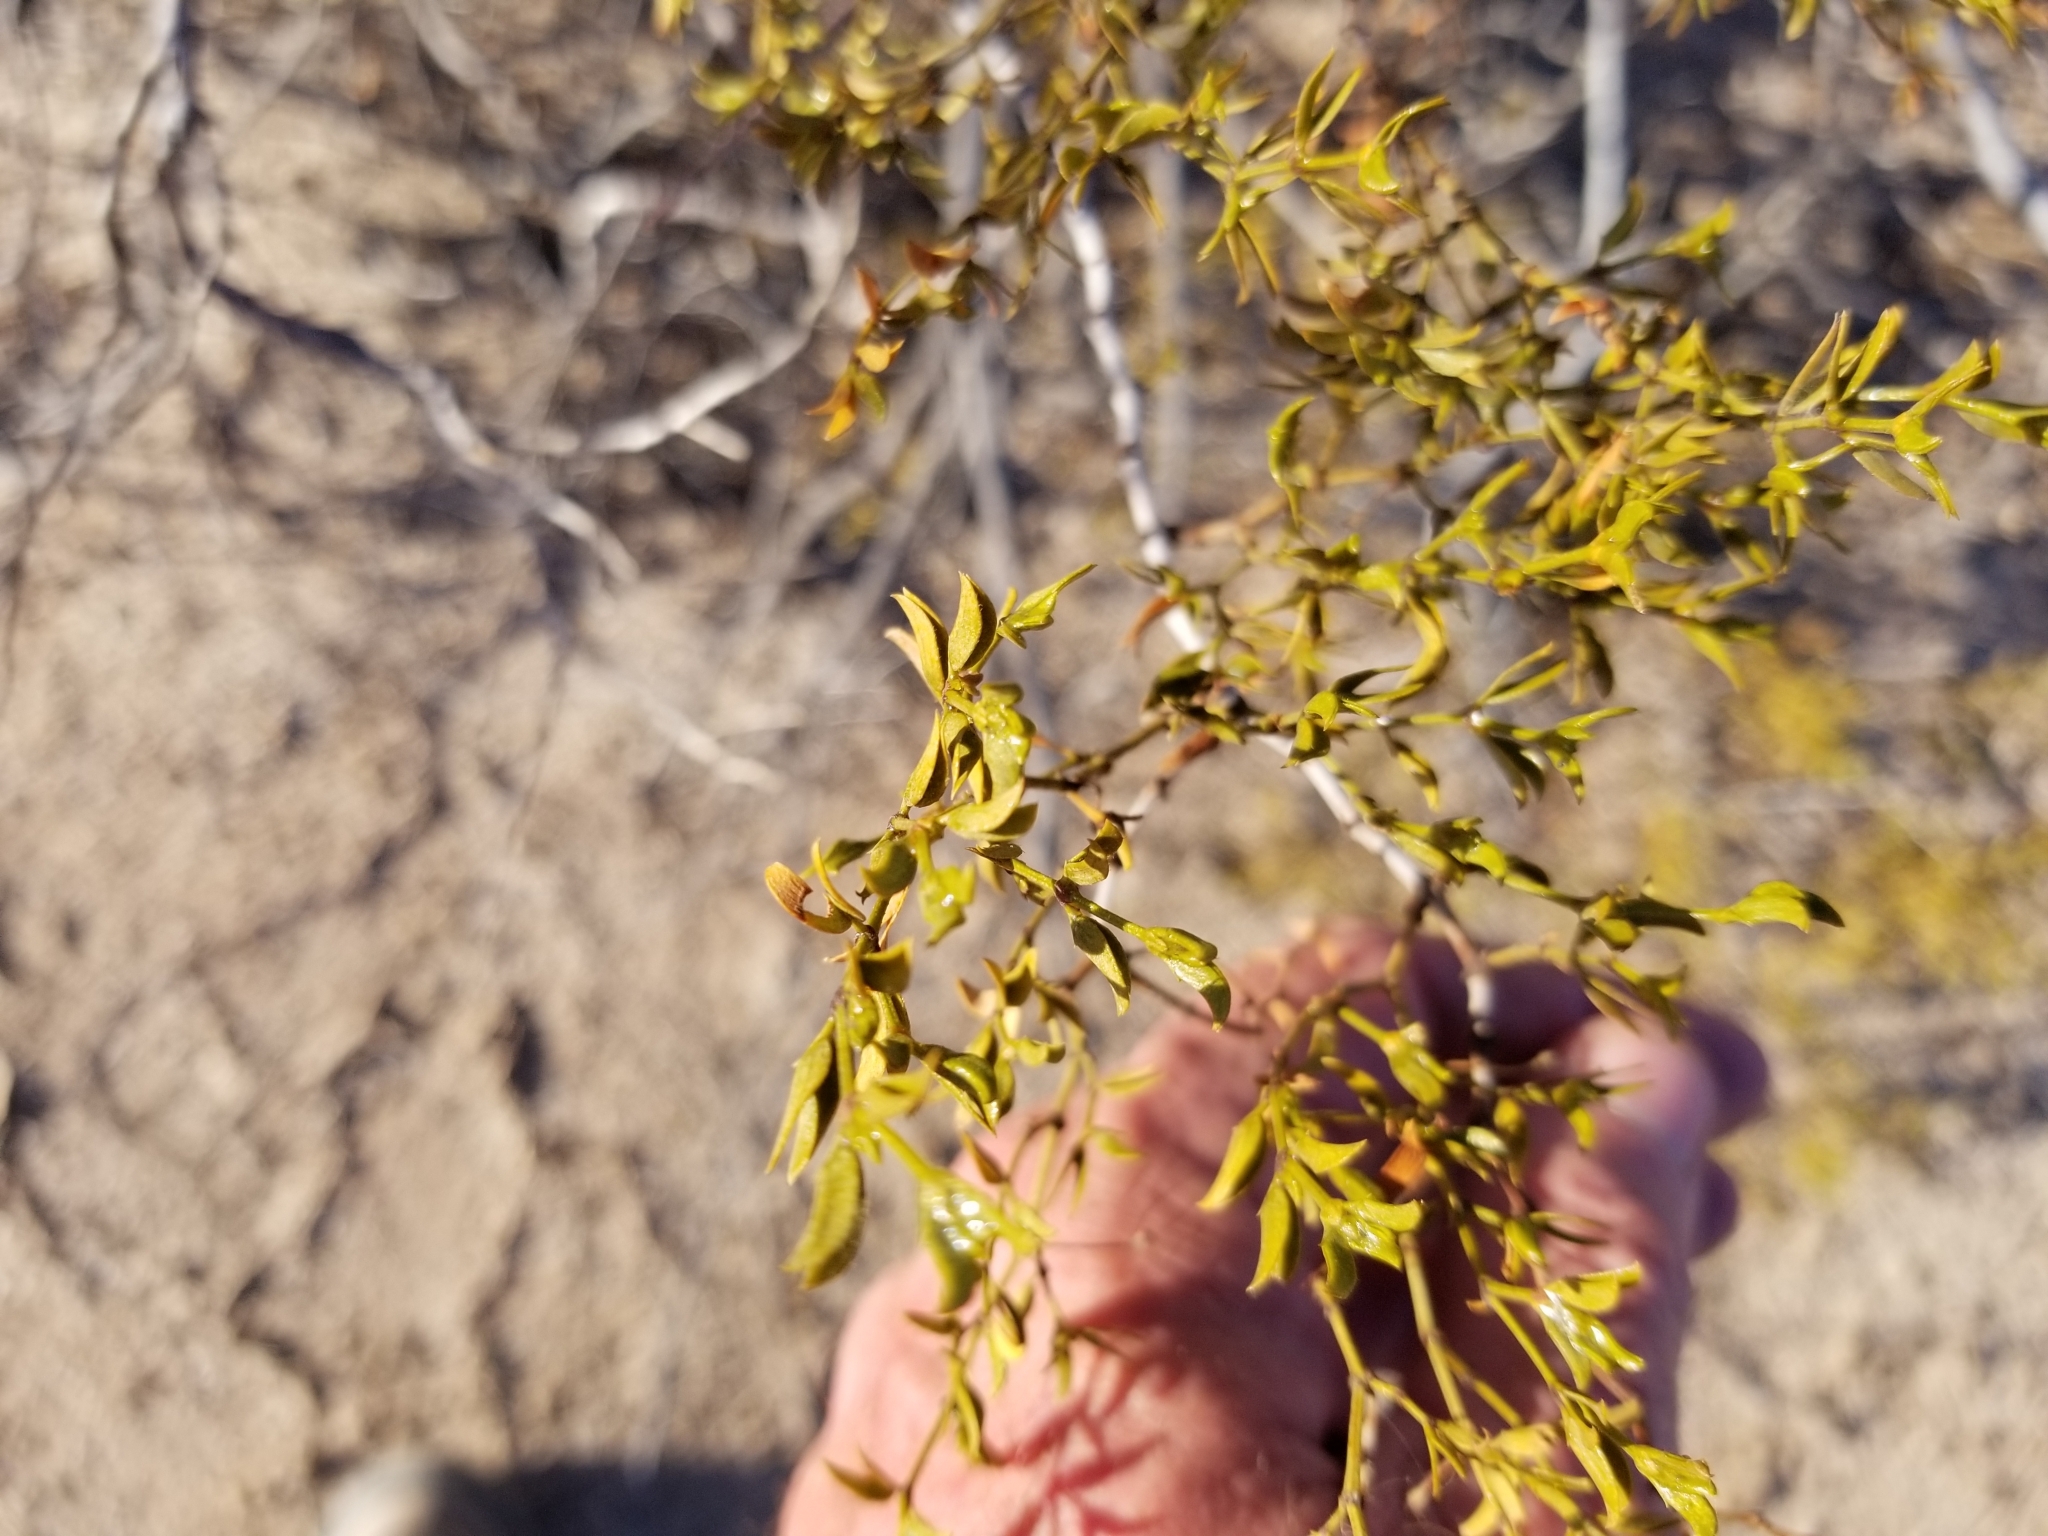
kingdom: Plantae
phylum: Tracheophyta
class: Magnoliopsida
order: Zygophyllales
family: Zygophyllaceae
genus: Larrea
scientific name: Larrea tridentata
